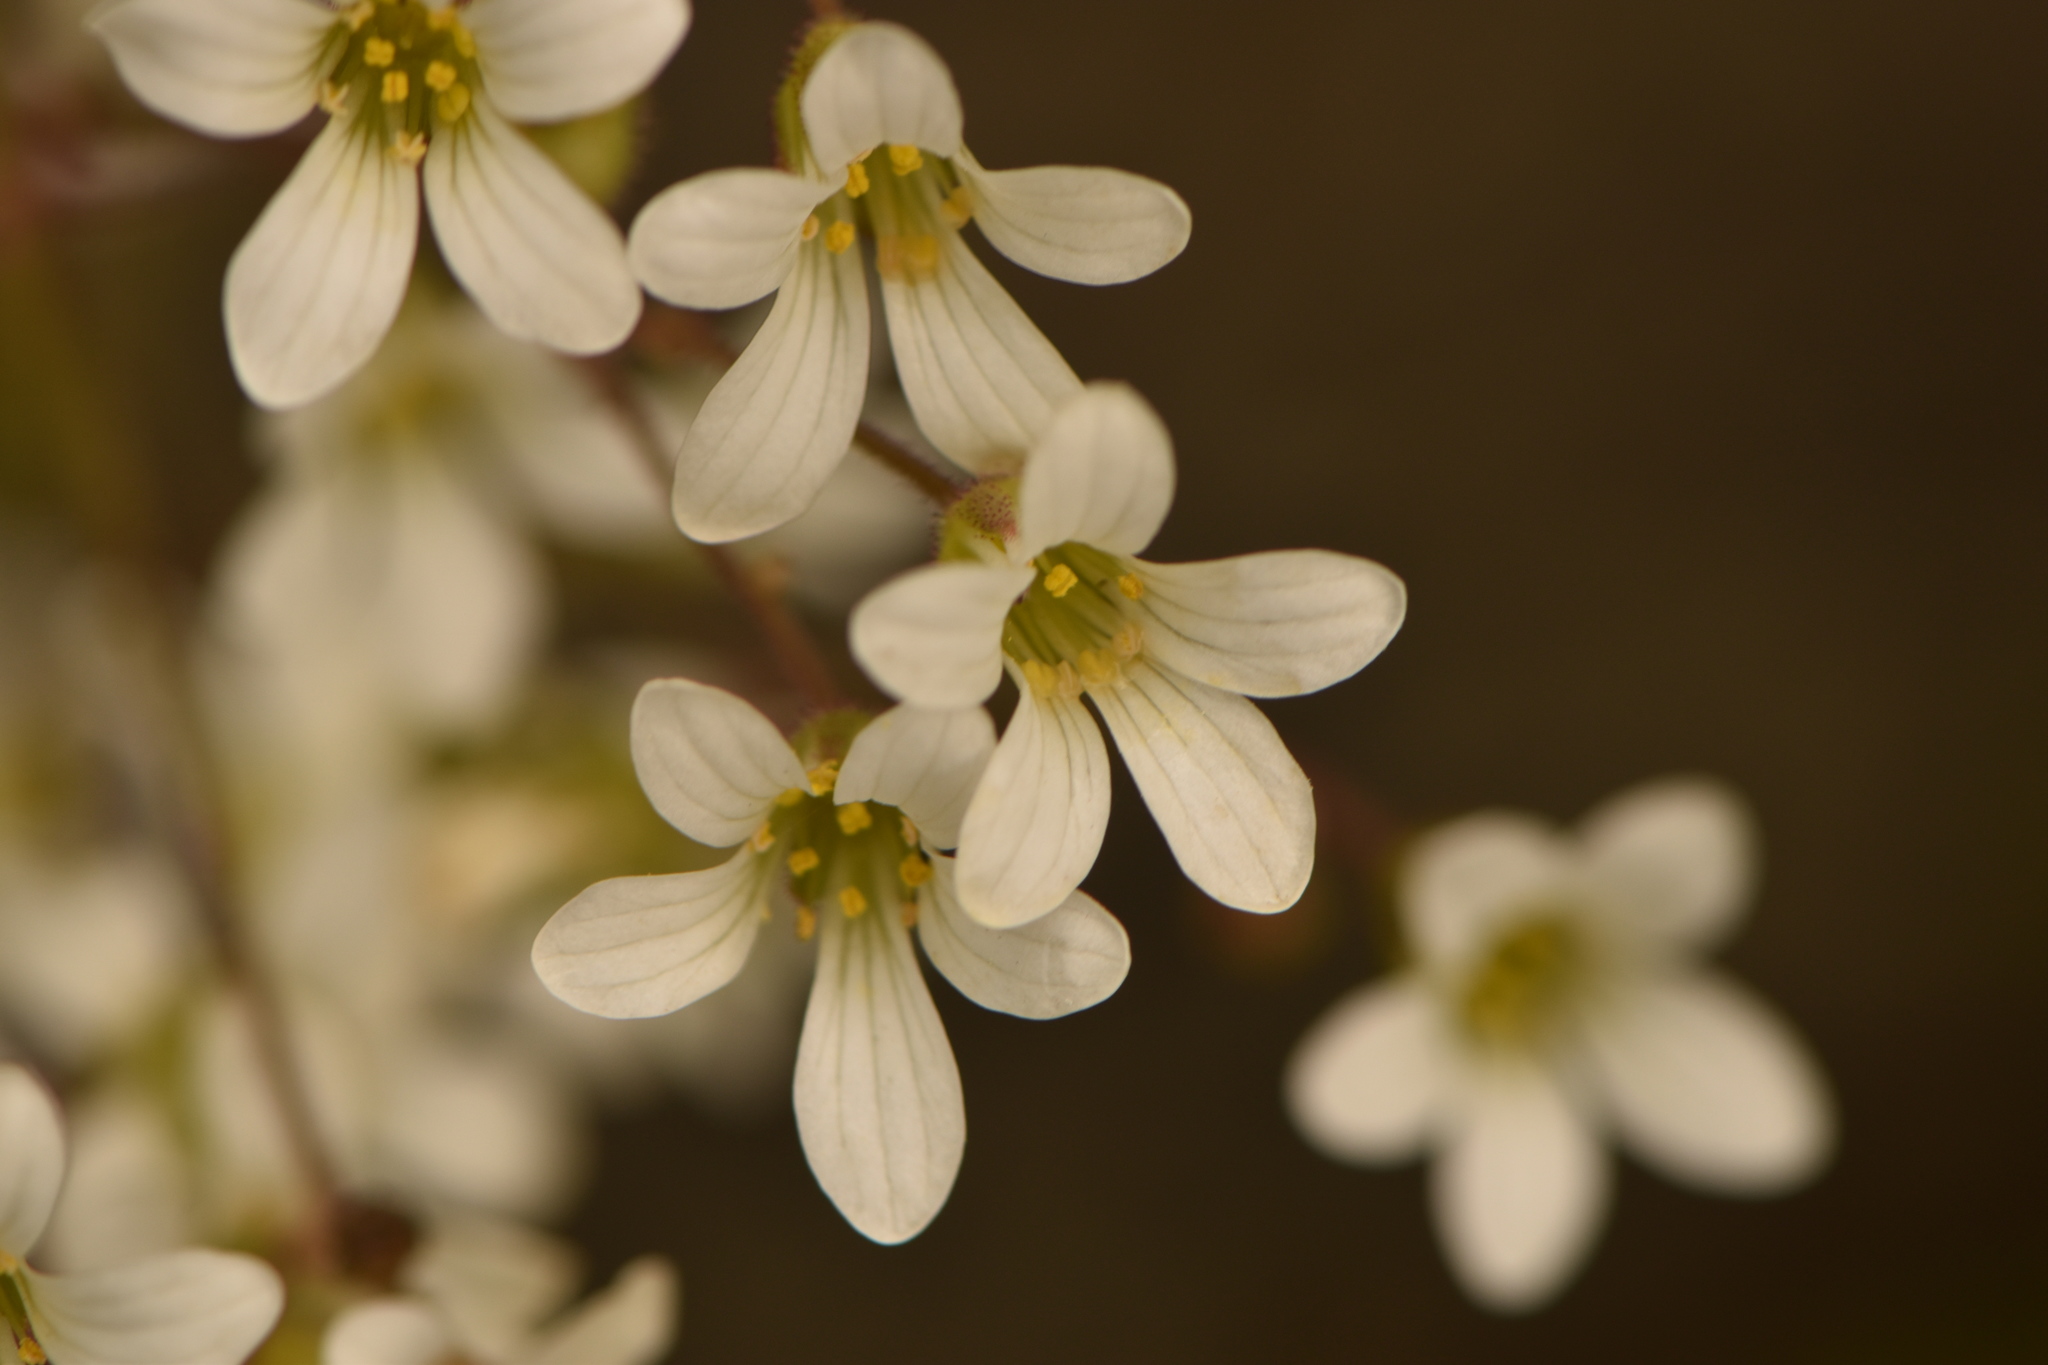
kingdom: Plantae
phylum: Tracheophyta
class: Magnoliopsida
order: Saxifragales
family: Saxifragaceae
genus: Saxifraga
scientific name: Saxifraga granulata
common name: Meadow saxifrage
